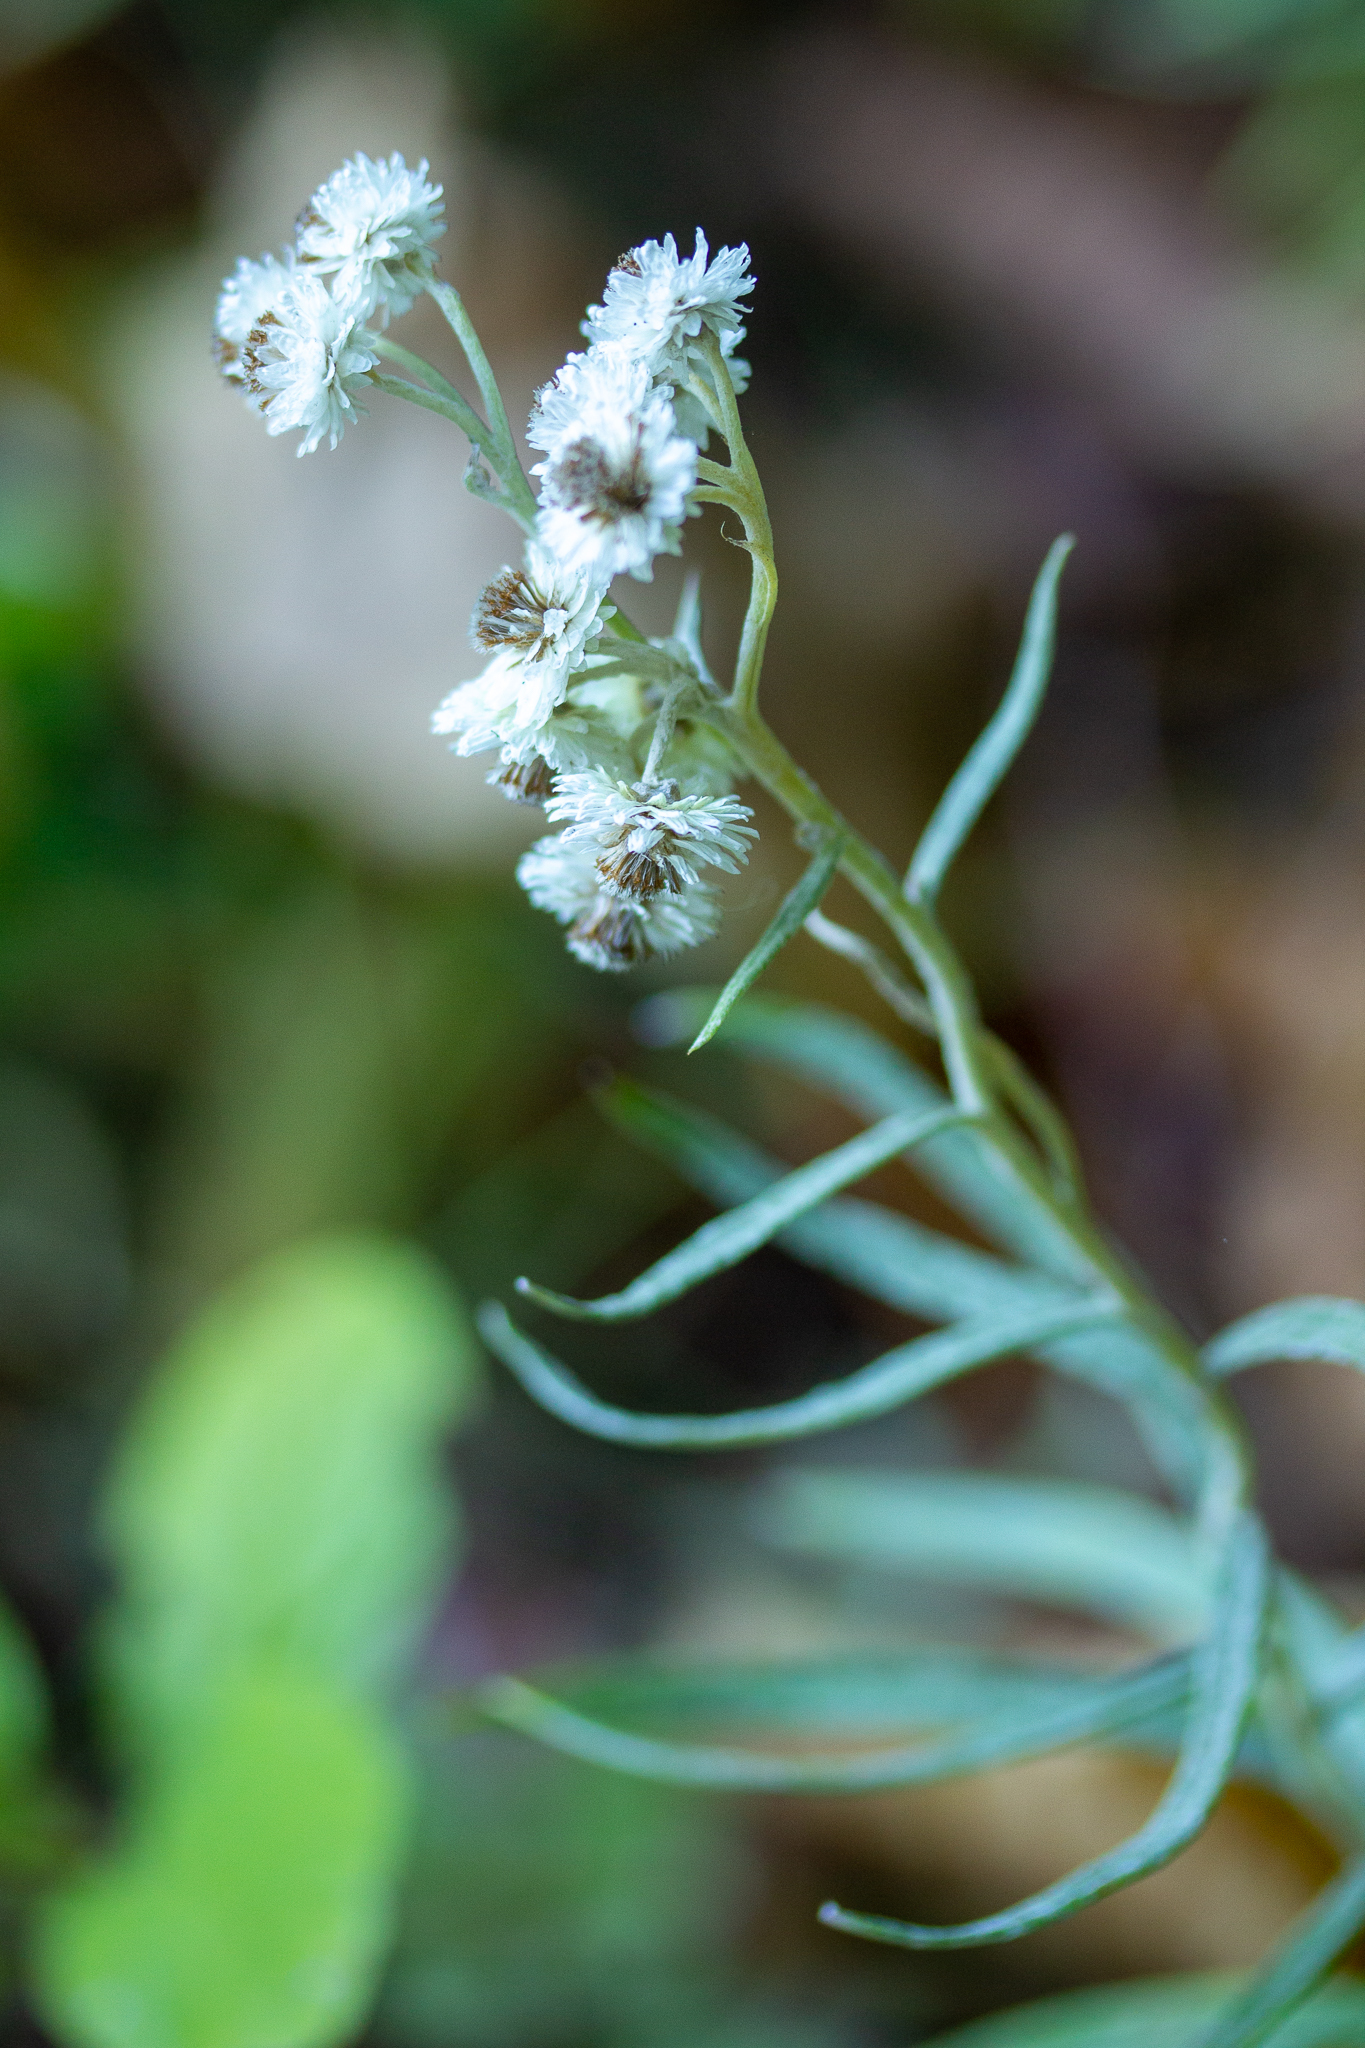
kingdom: Plantae
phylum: Tracheophyta
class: Magnoliopsida
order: Asterales
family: Asteraceae
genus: Anaphalis
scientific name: Anaphalis margaritacea
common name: Pearly everlasting
